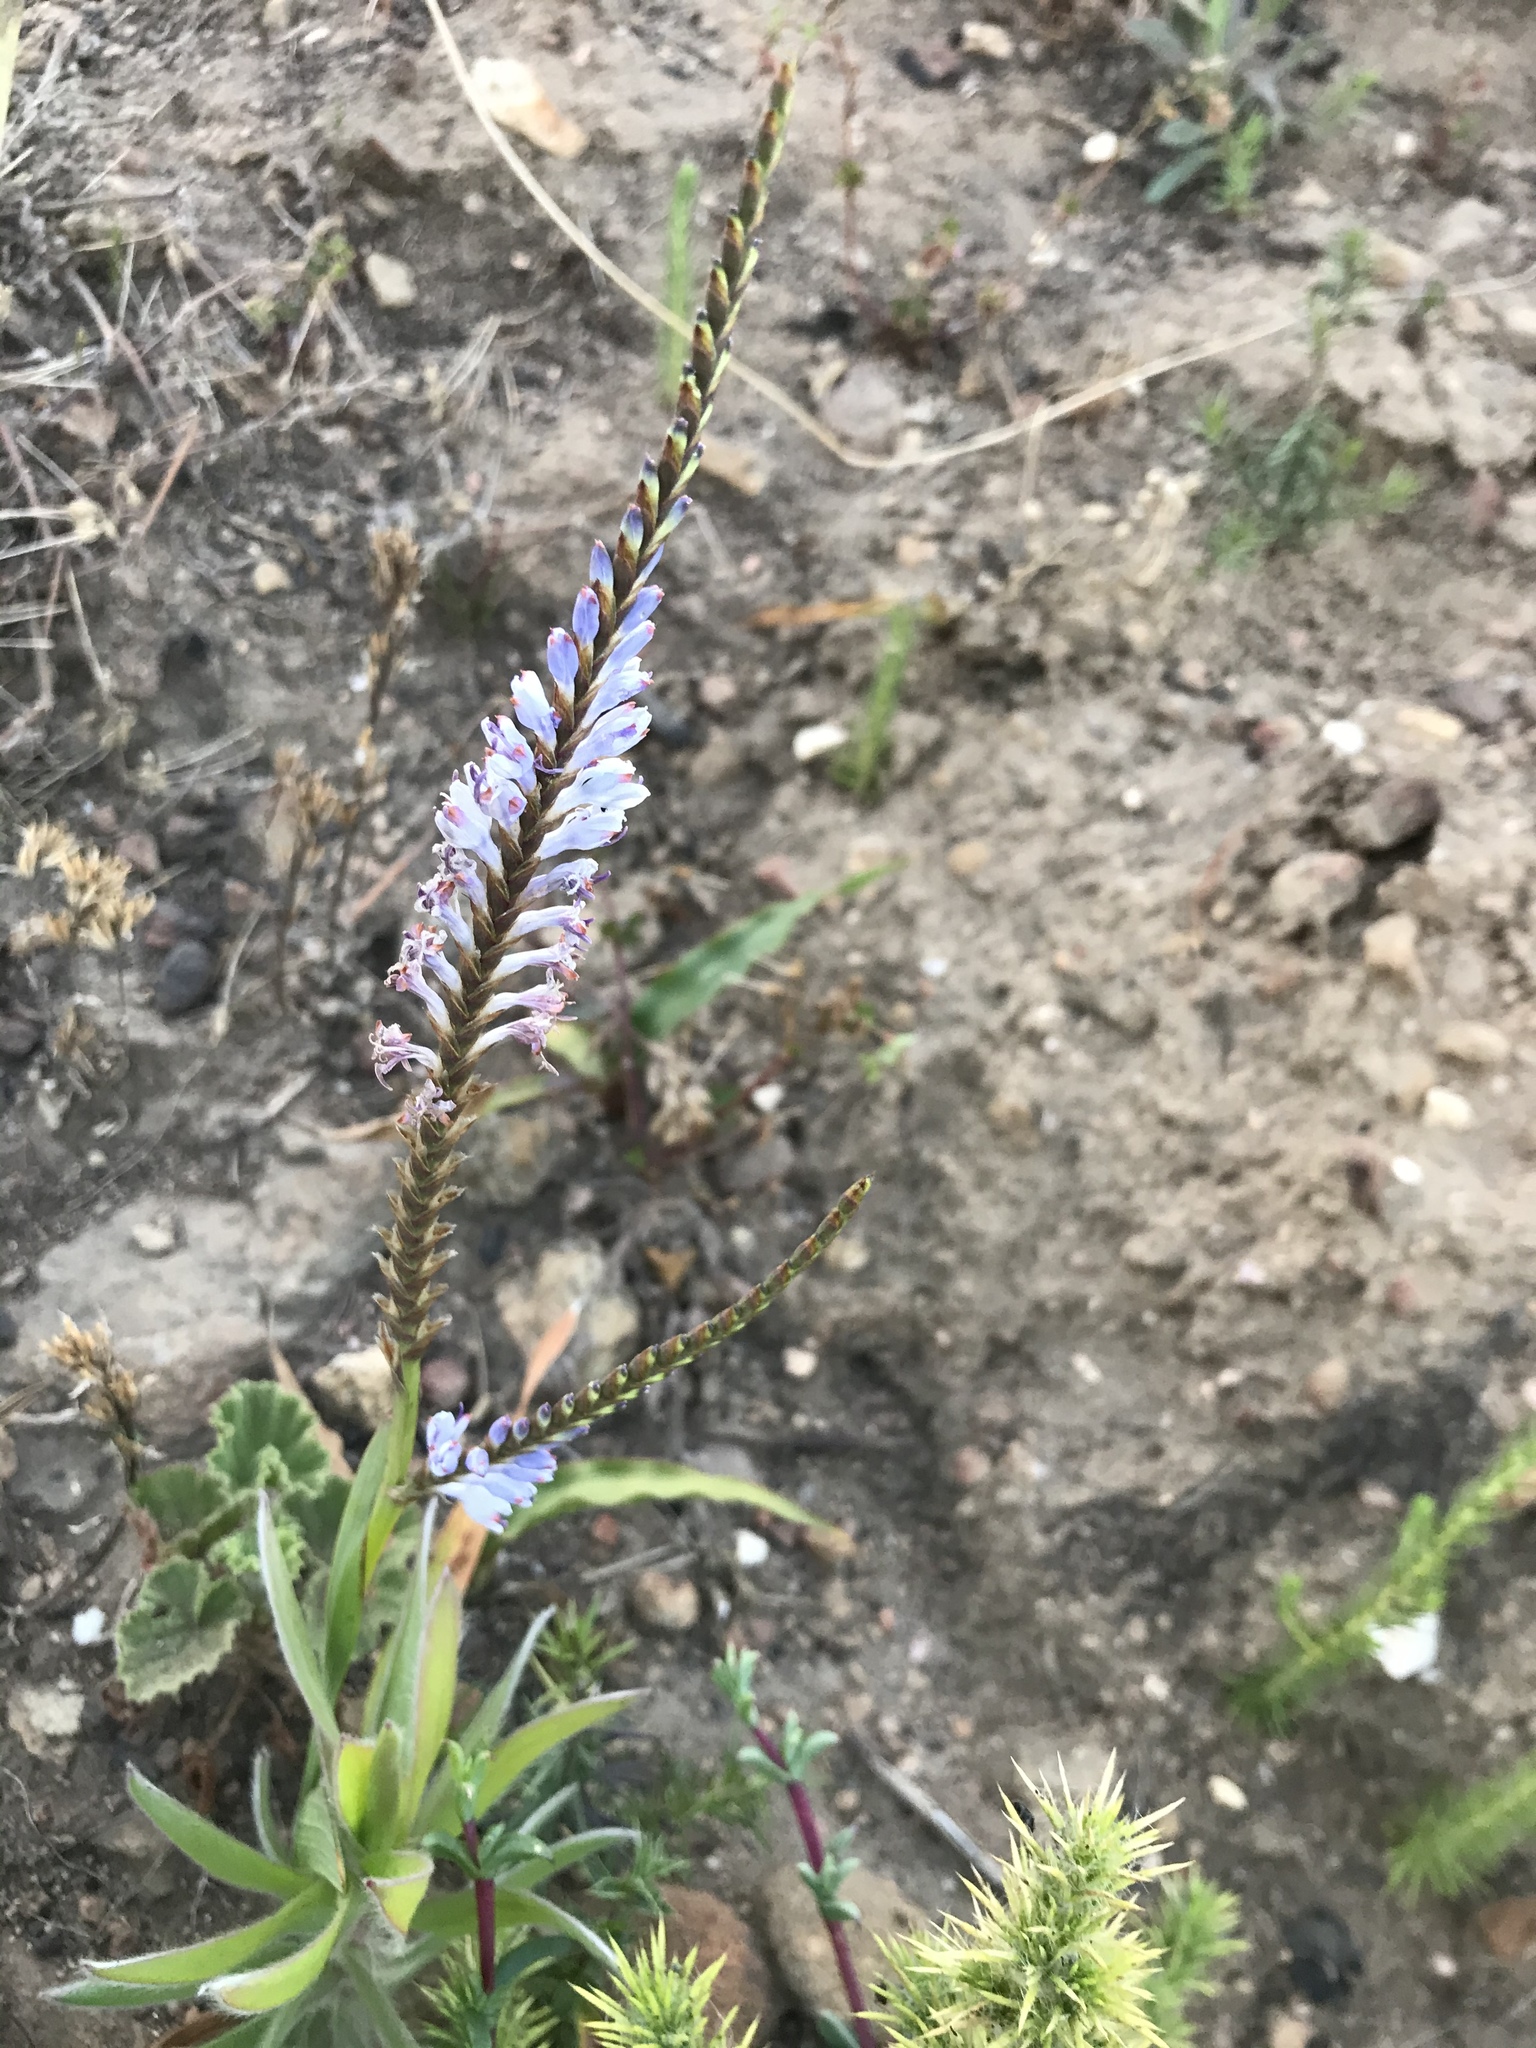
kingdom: Plantae
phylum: Tracheophyta
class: Liliopsida
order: Asparagales
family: Iridaceae
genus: Micranthus
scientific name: Micranthus tubulosus
